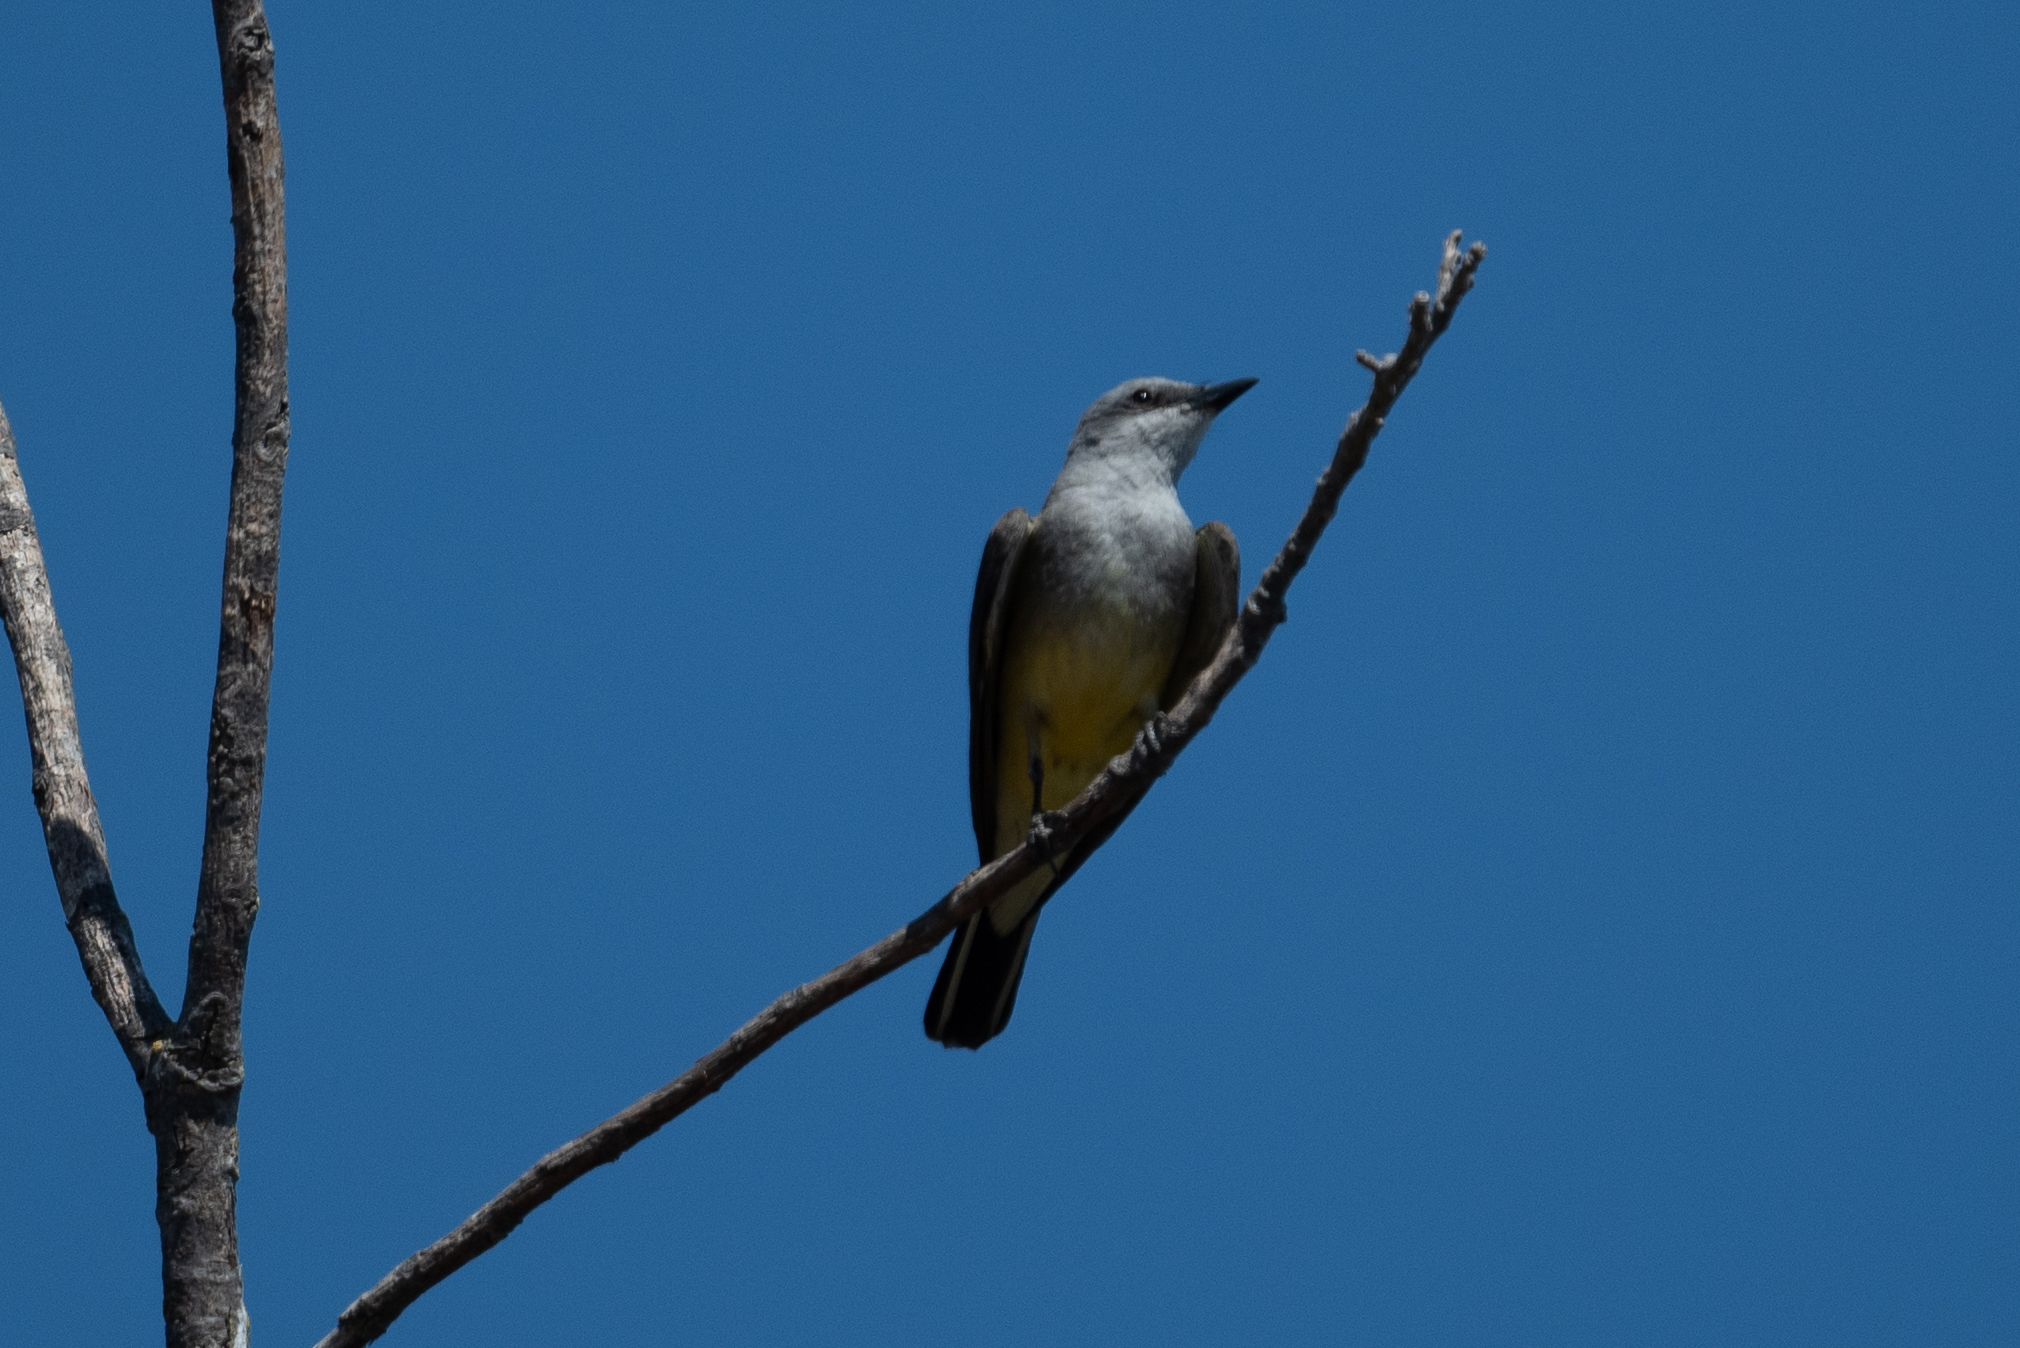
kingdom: Animalia
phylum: Chordata
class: Aves
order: Passeriformes
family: Tyrannidae
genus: Tyrannus
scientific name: Tyrannus verticalis
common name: Western kingbird
